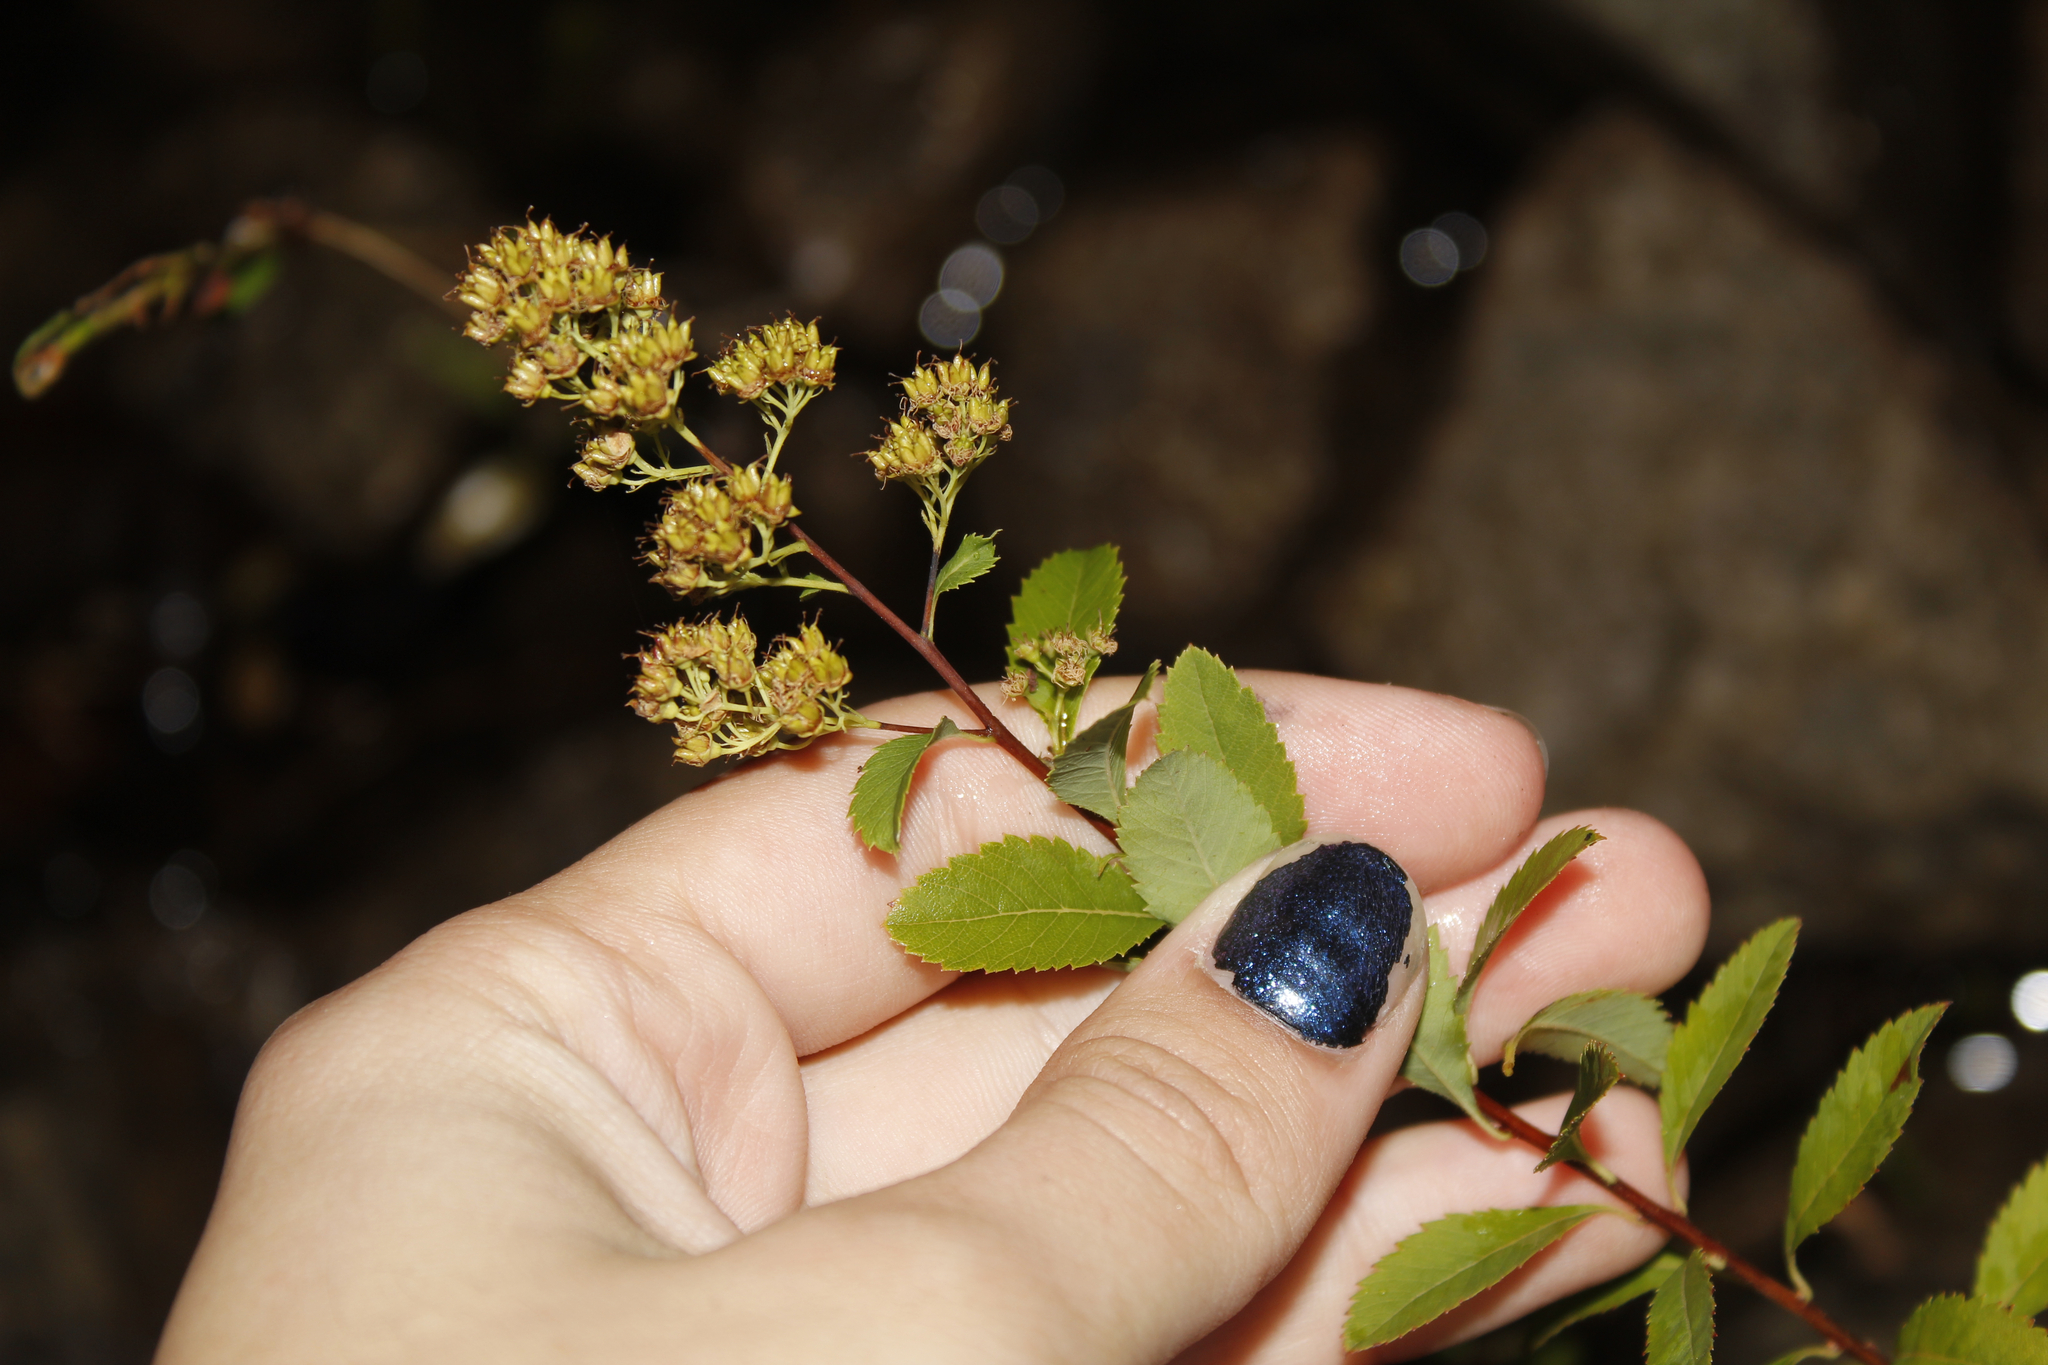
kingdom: Plantae
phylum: Tracheophyta
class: Magnoliopsida
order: Rosales
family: Rosaceae
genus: Spiraea
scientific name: Spiraea alba
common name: Pale bridewort
